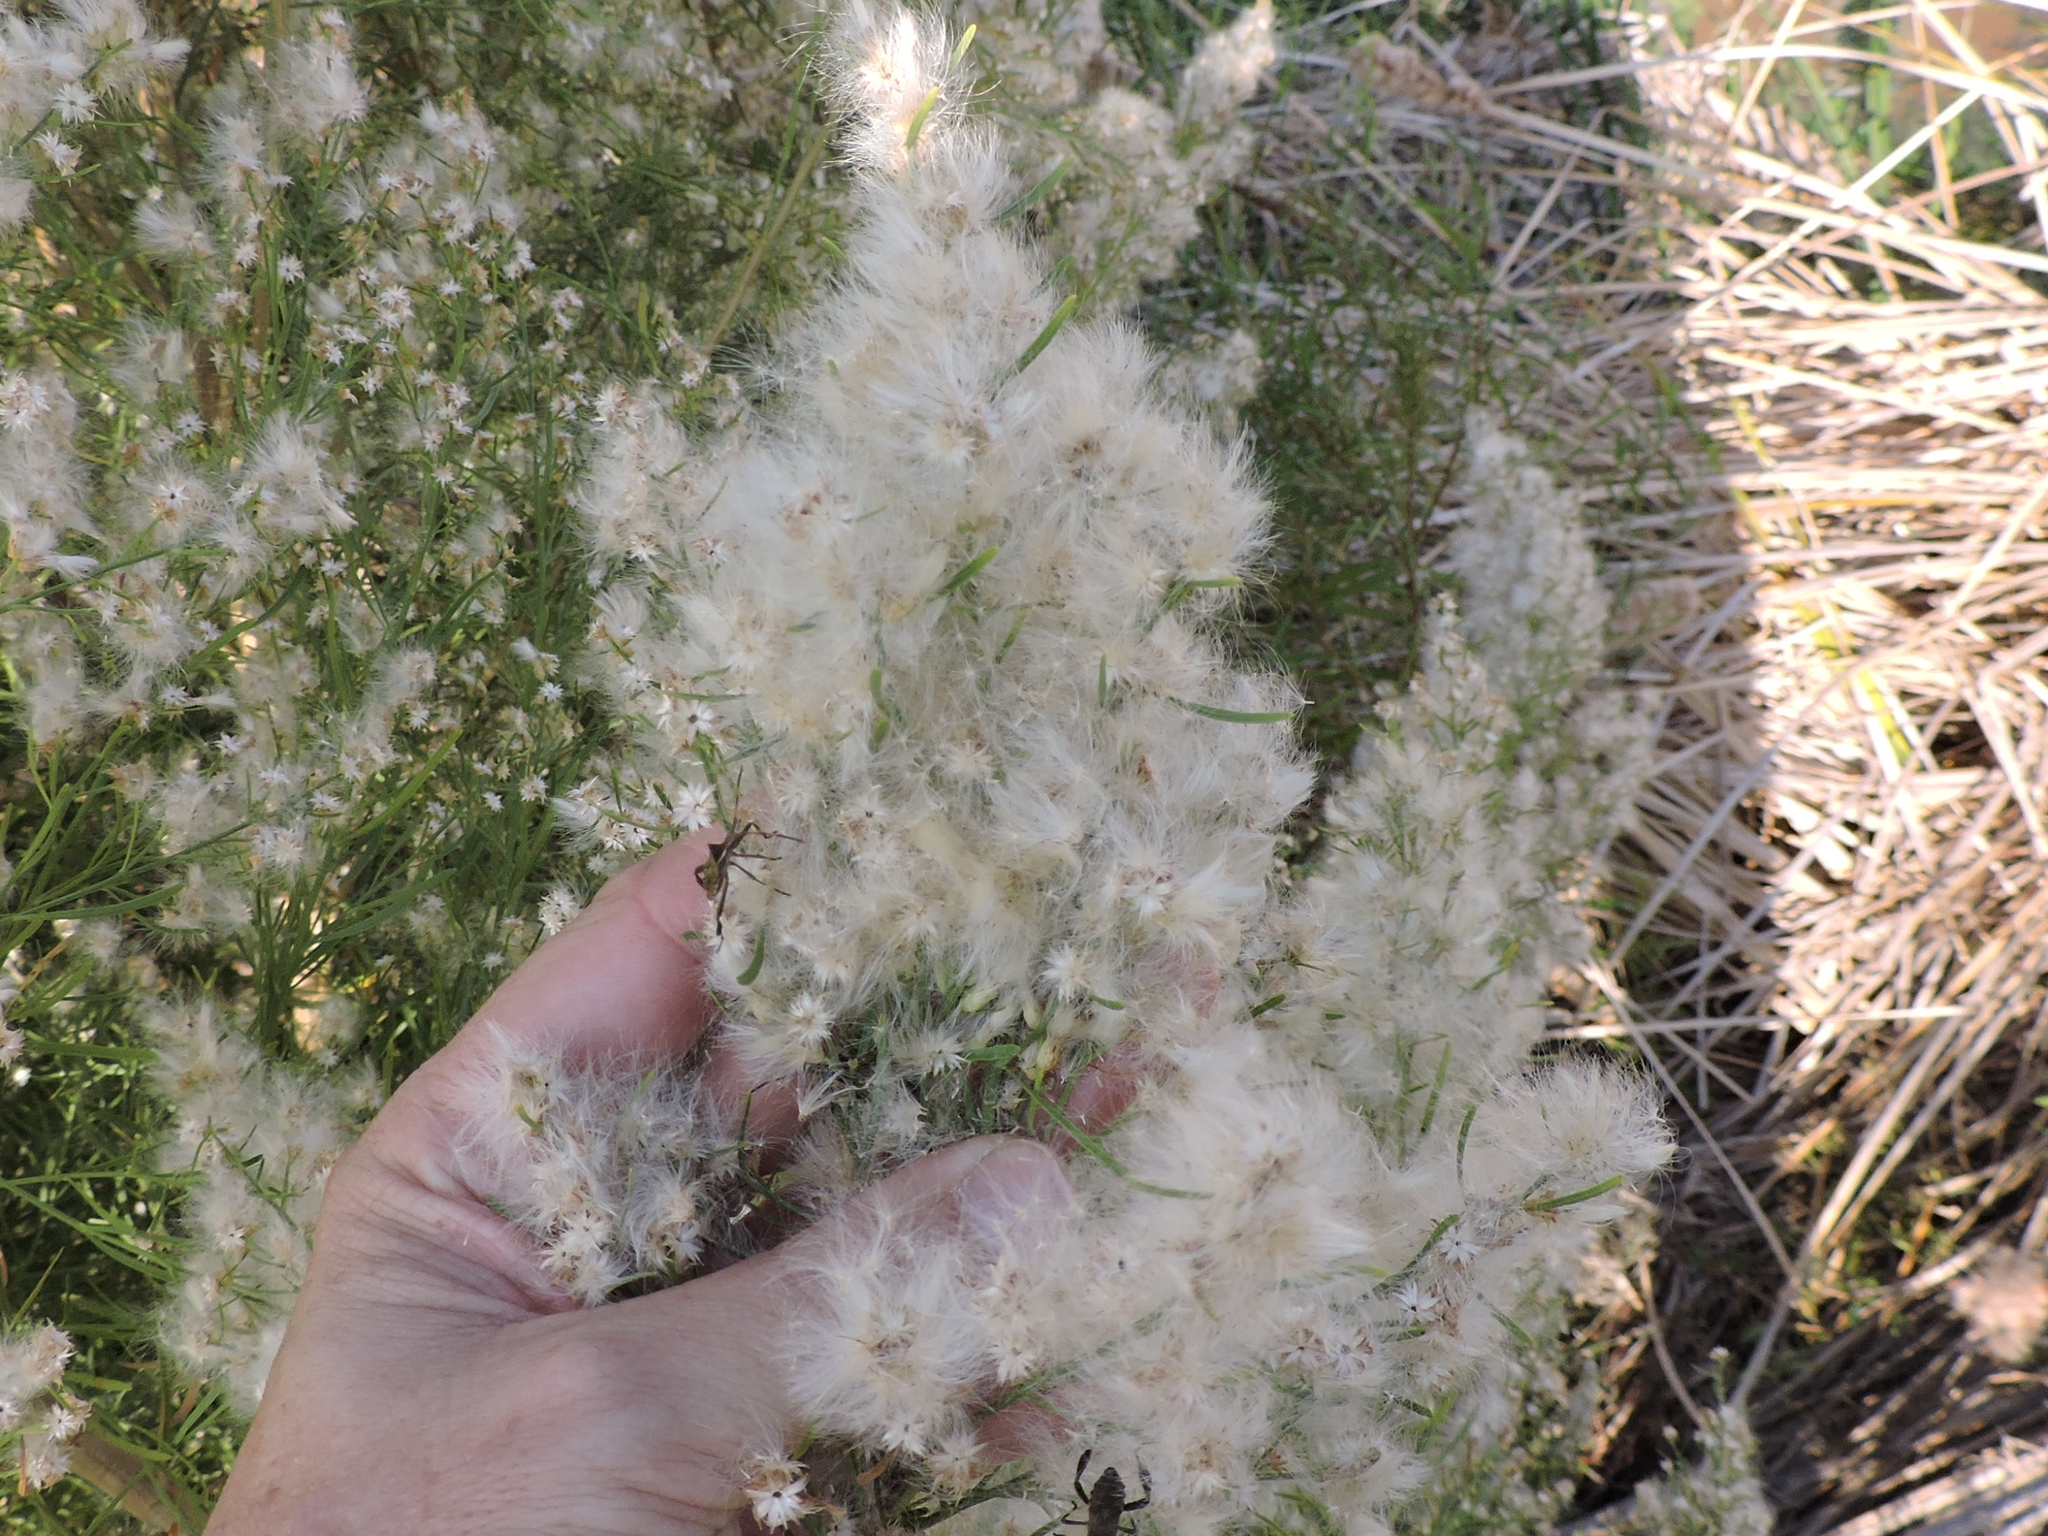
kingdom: Plantae
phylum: Tracheophyta
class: Magnoliopsida
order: Asterales
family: Asteraceae
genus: Baccharis
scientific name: Baccharis neglecta
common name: Roosevelt-weed
